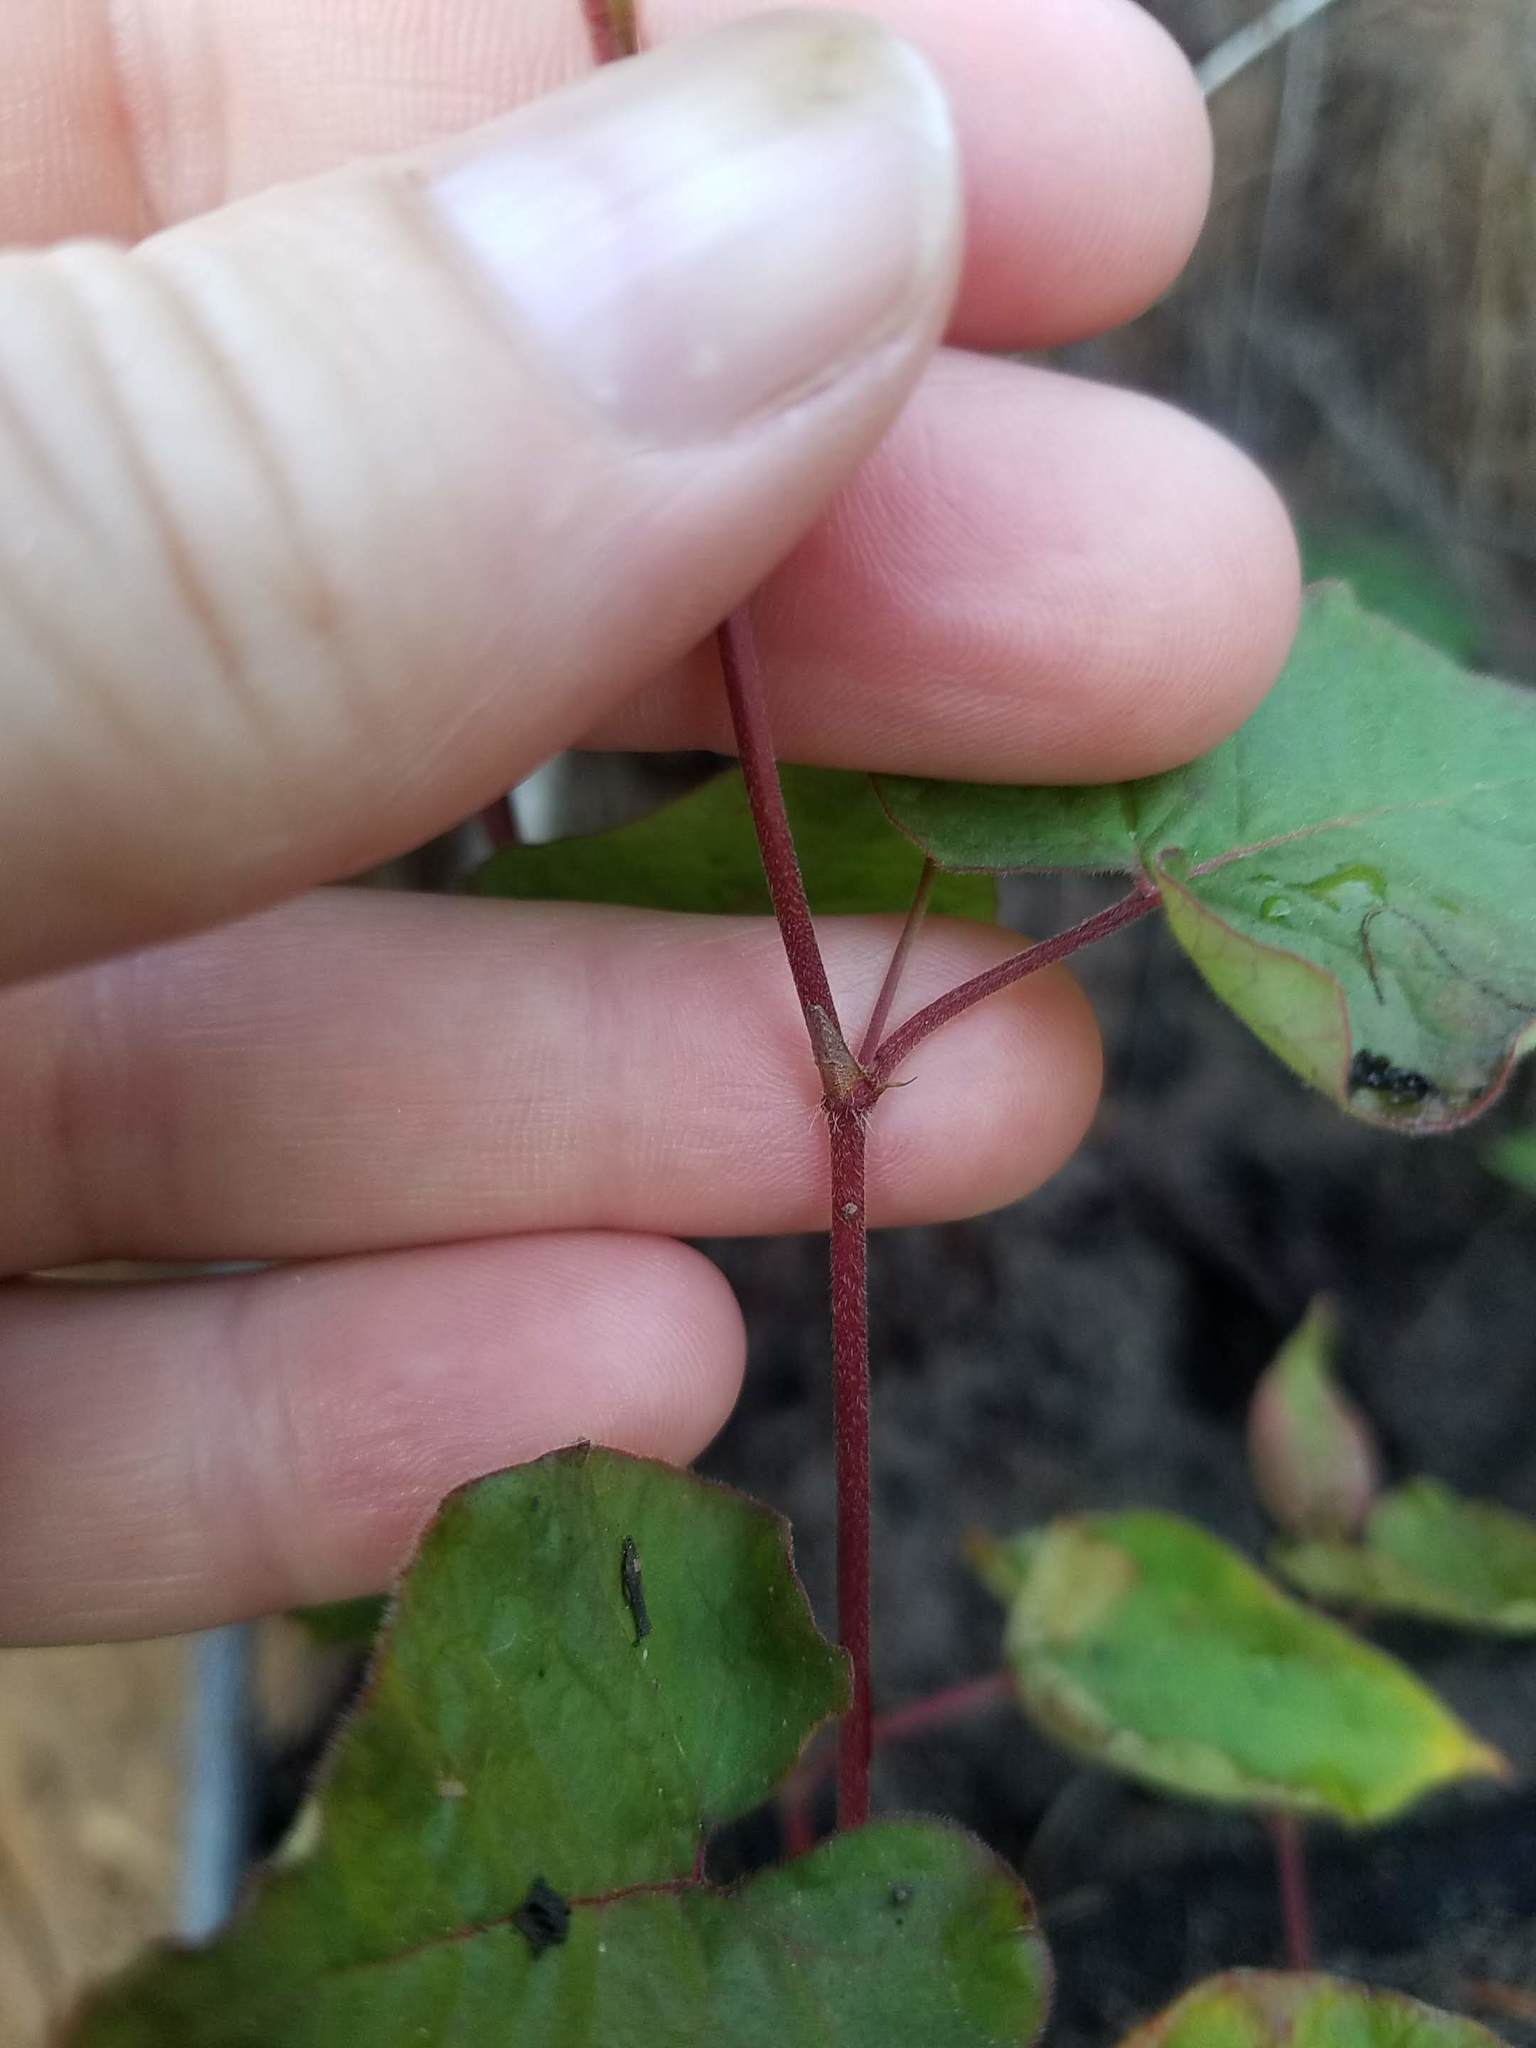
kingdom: Plantae
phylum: Tracheophyta
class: Magnoliopsida
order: Caryophyllales
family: Polygonaceae
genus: Parogonum
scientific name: Parogonum ciliinode
